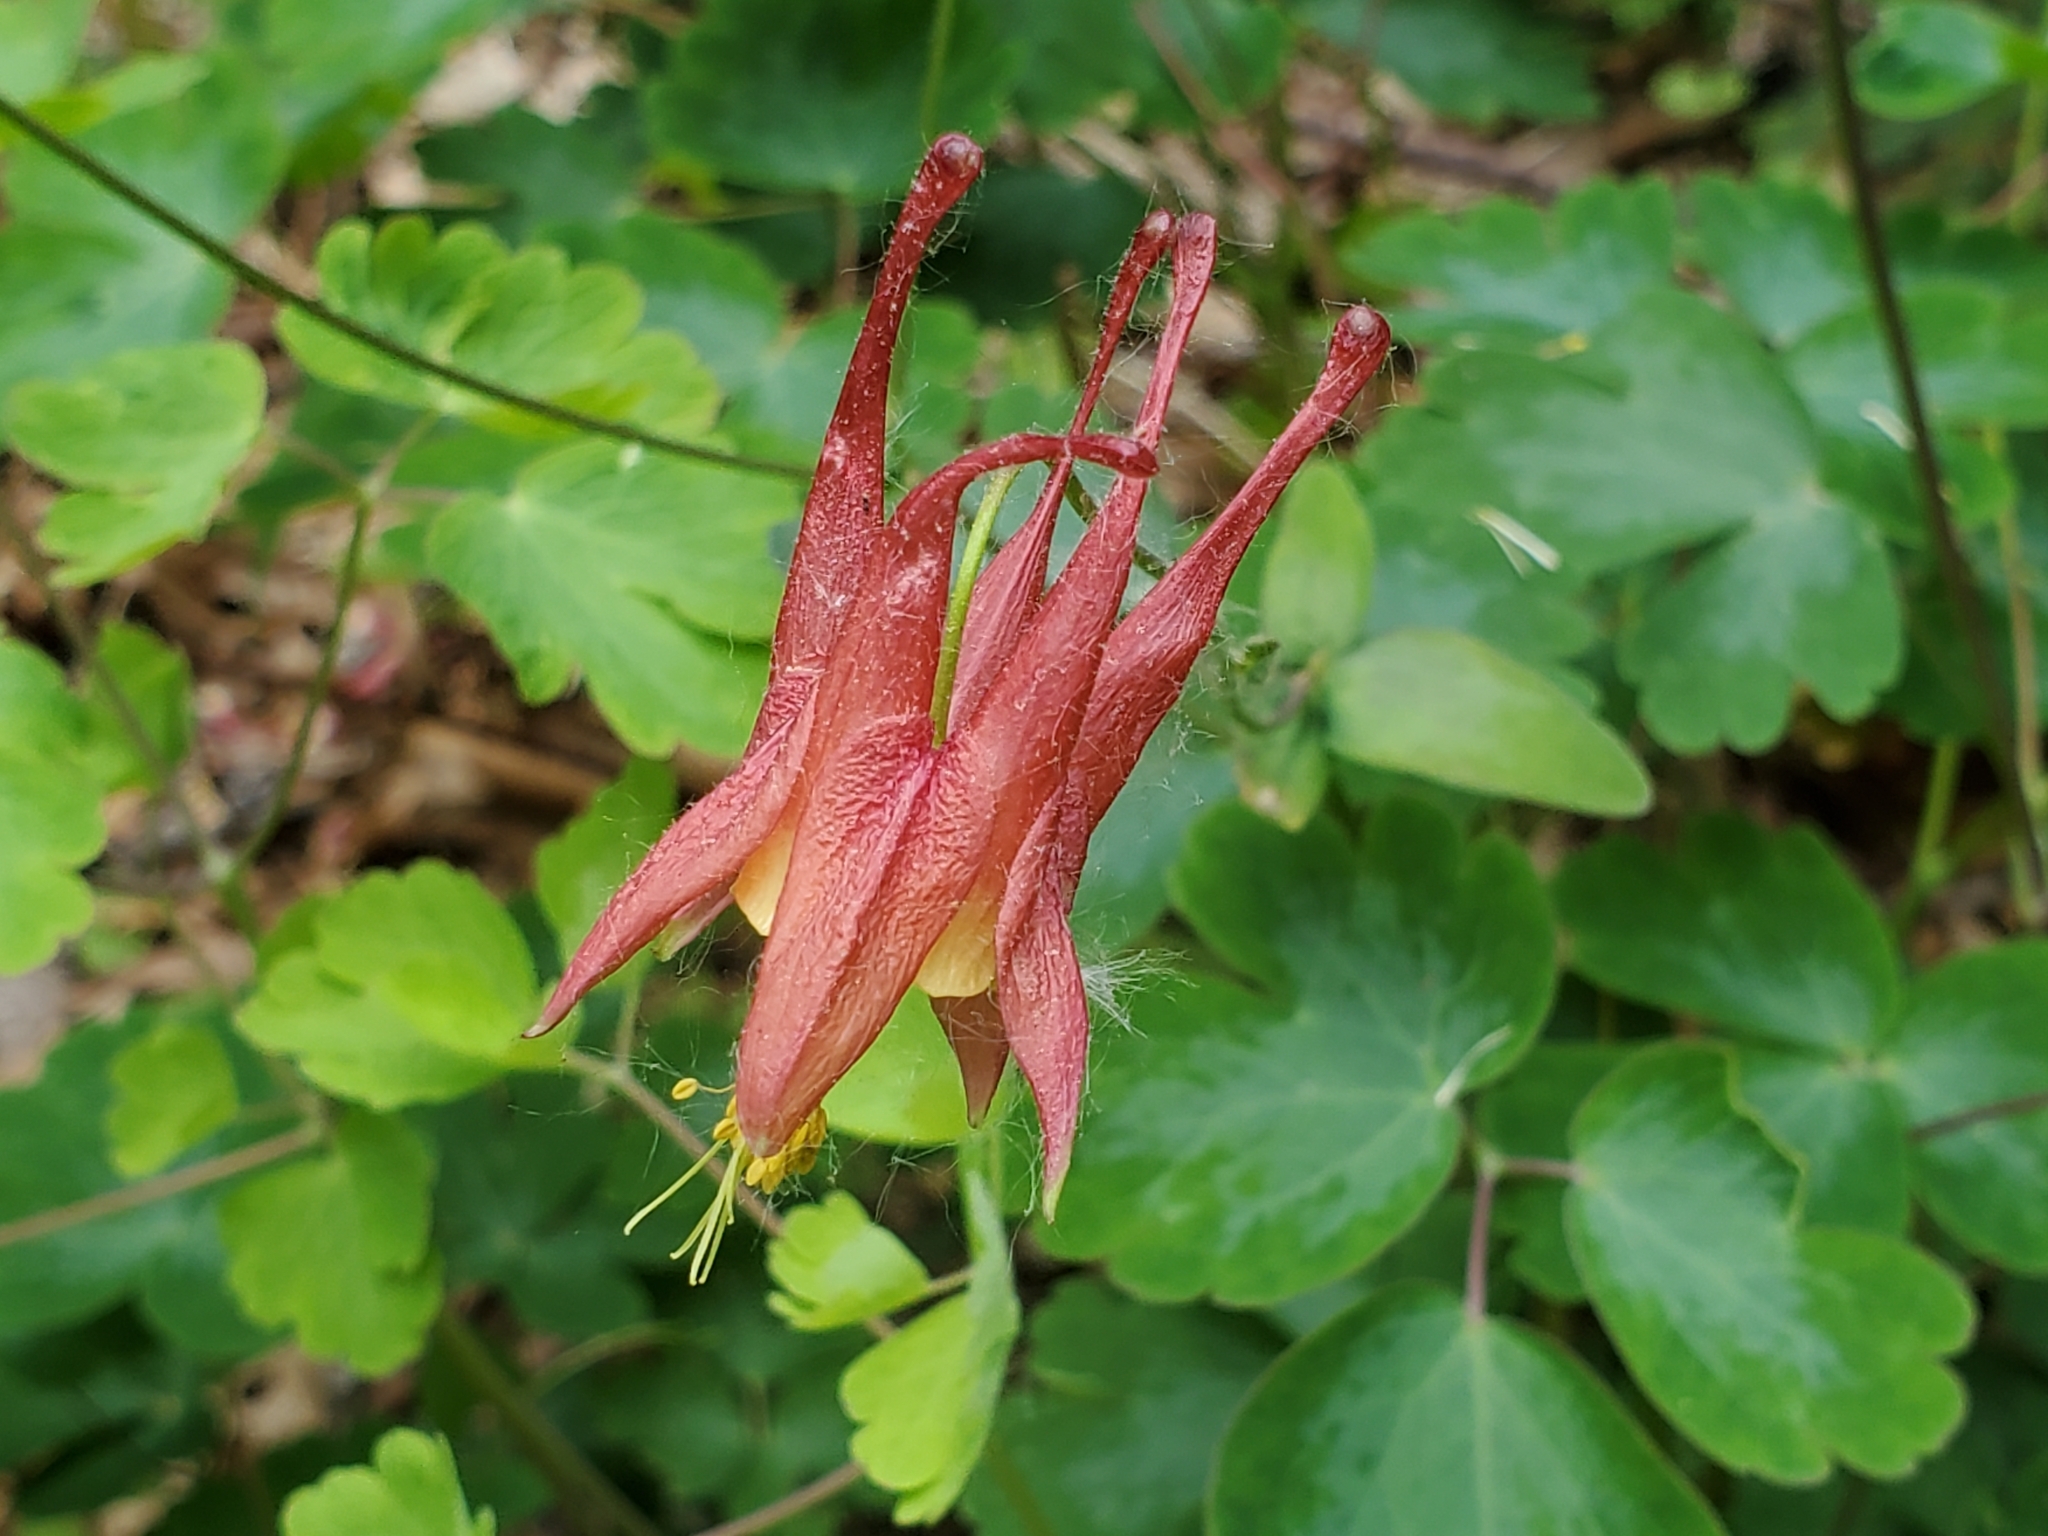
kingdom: Plantae
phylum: Tracheophyta
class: Magnoliopsida
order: Ranunculales
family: Ranunculaceae
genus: Aquilegia
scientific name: Aquilegia canadensis
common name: American columbine
